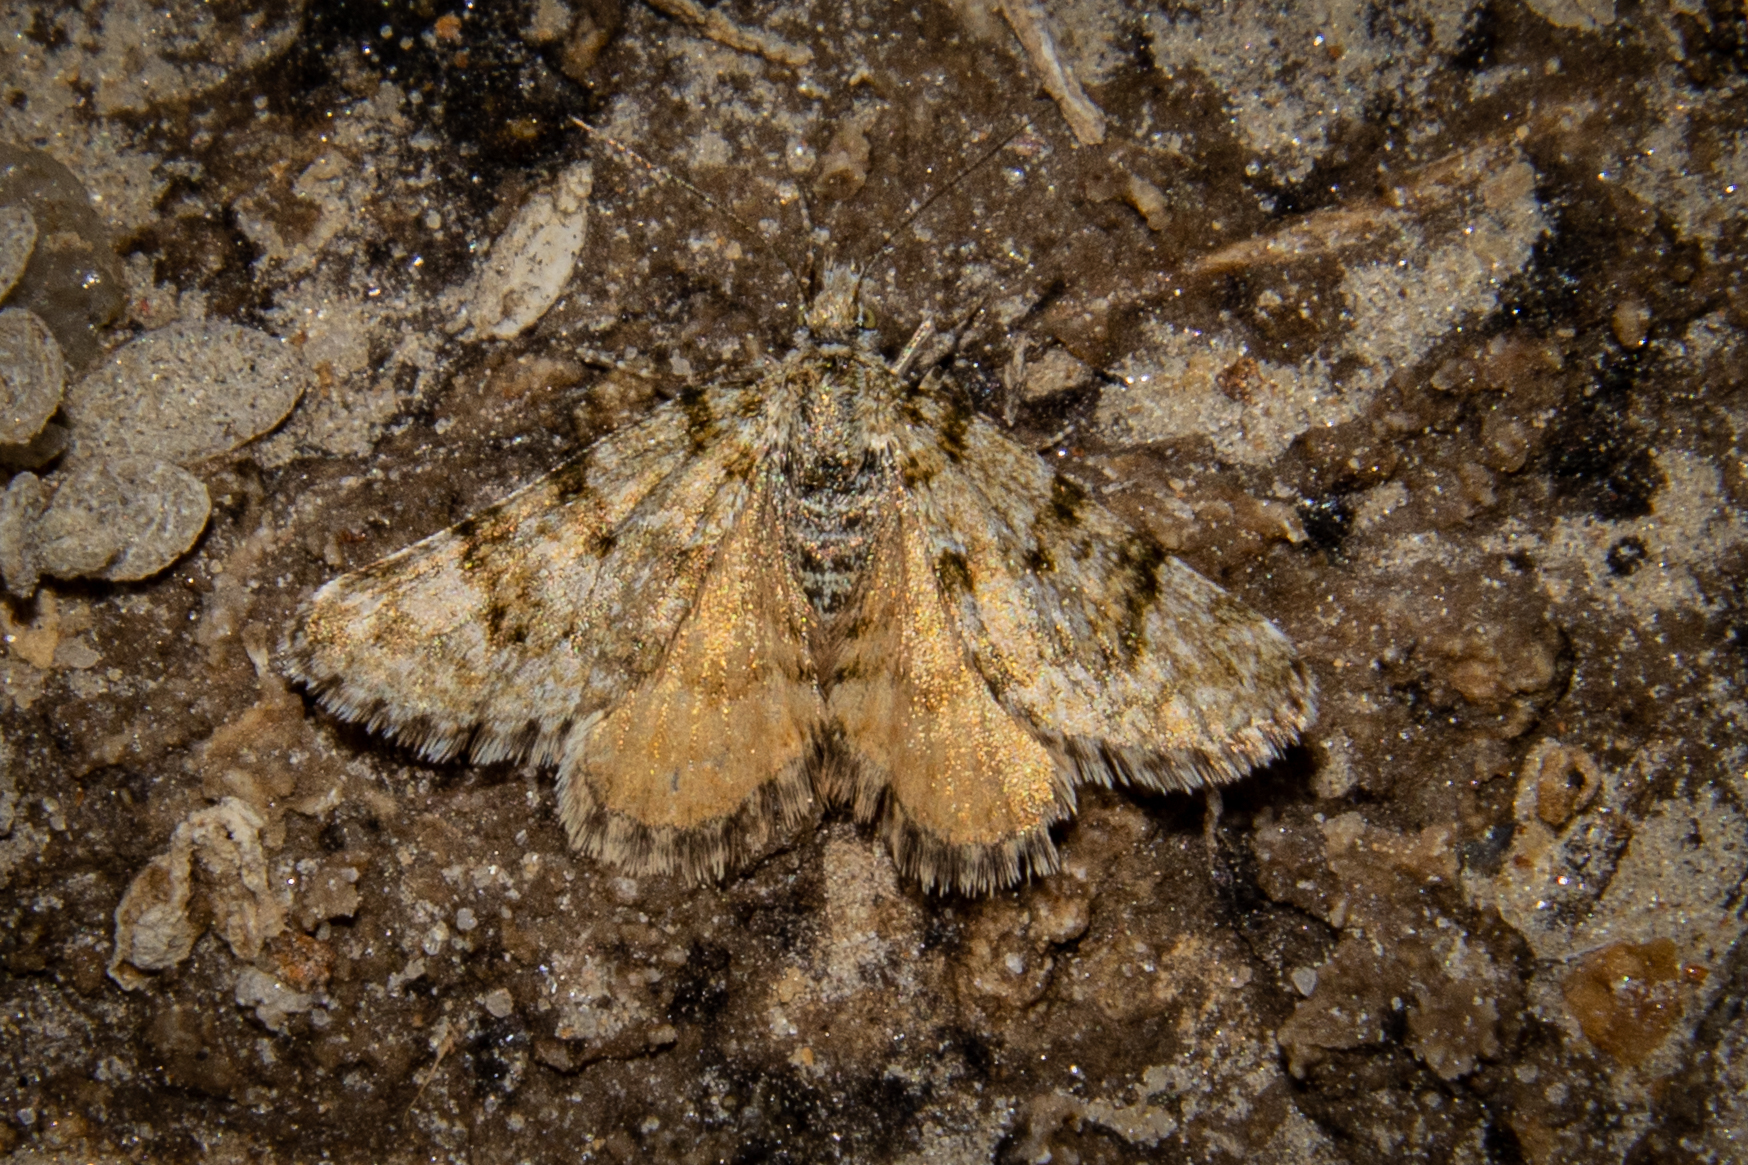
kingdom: Animalia
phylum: Arthropoda
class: Insecta
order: Lepidoptera
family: Geometridae
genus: Paranotoreas
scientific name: Paranotoreas fulva
